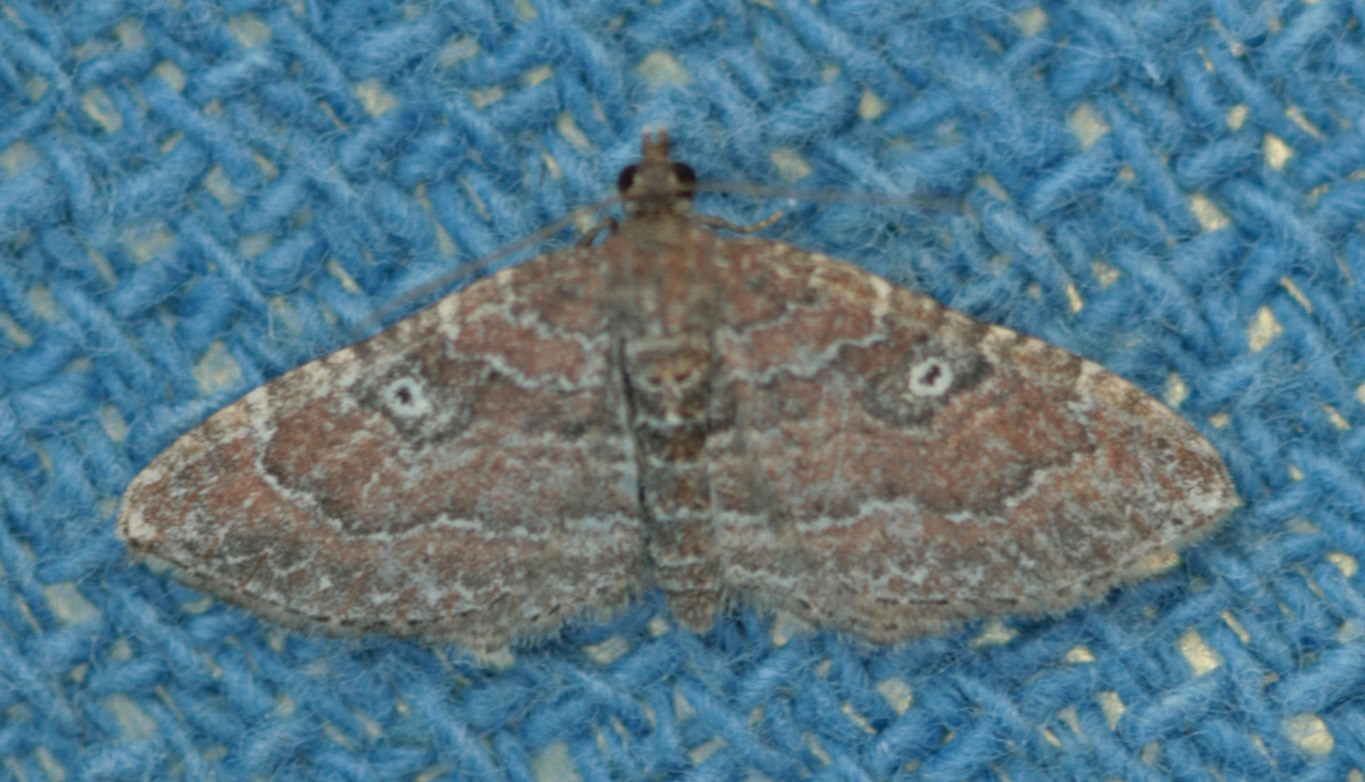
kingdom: Animalia
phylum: Arthropoda
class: Insecta
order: Lepidoptera
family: Geometridae
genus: Orthonama
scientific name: Orthonama obstipata
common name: The gem
